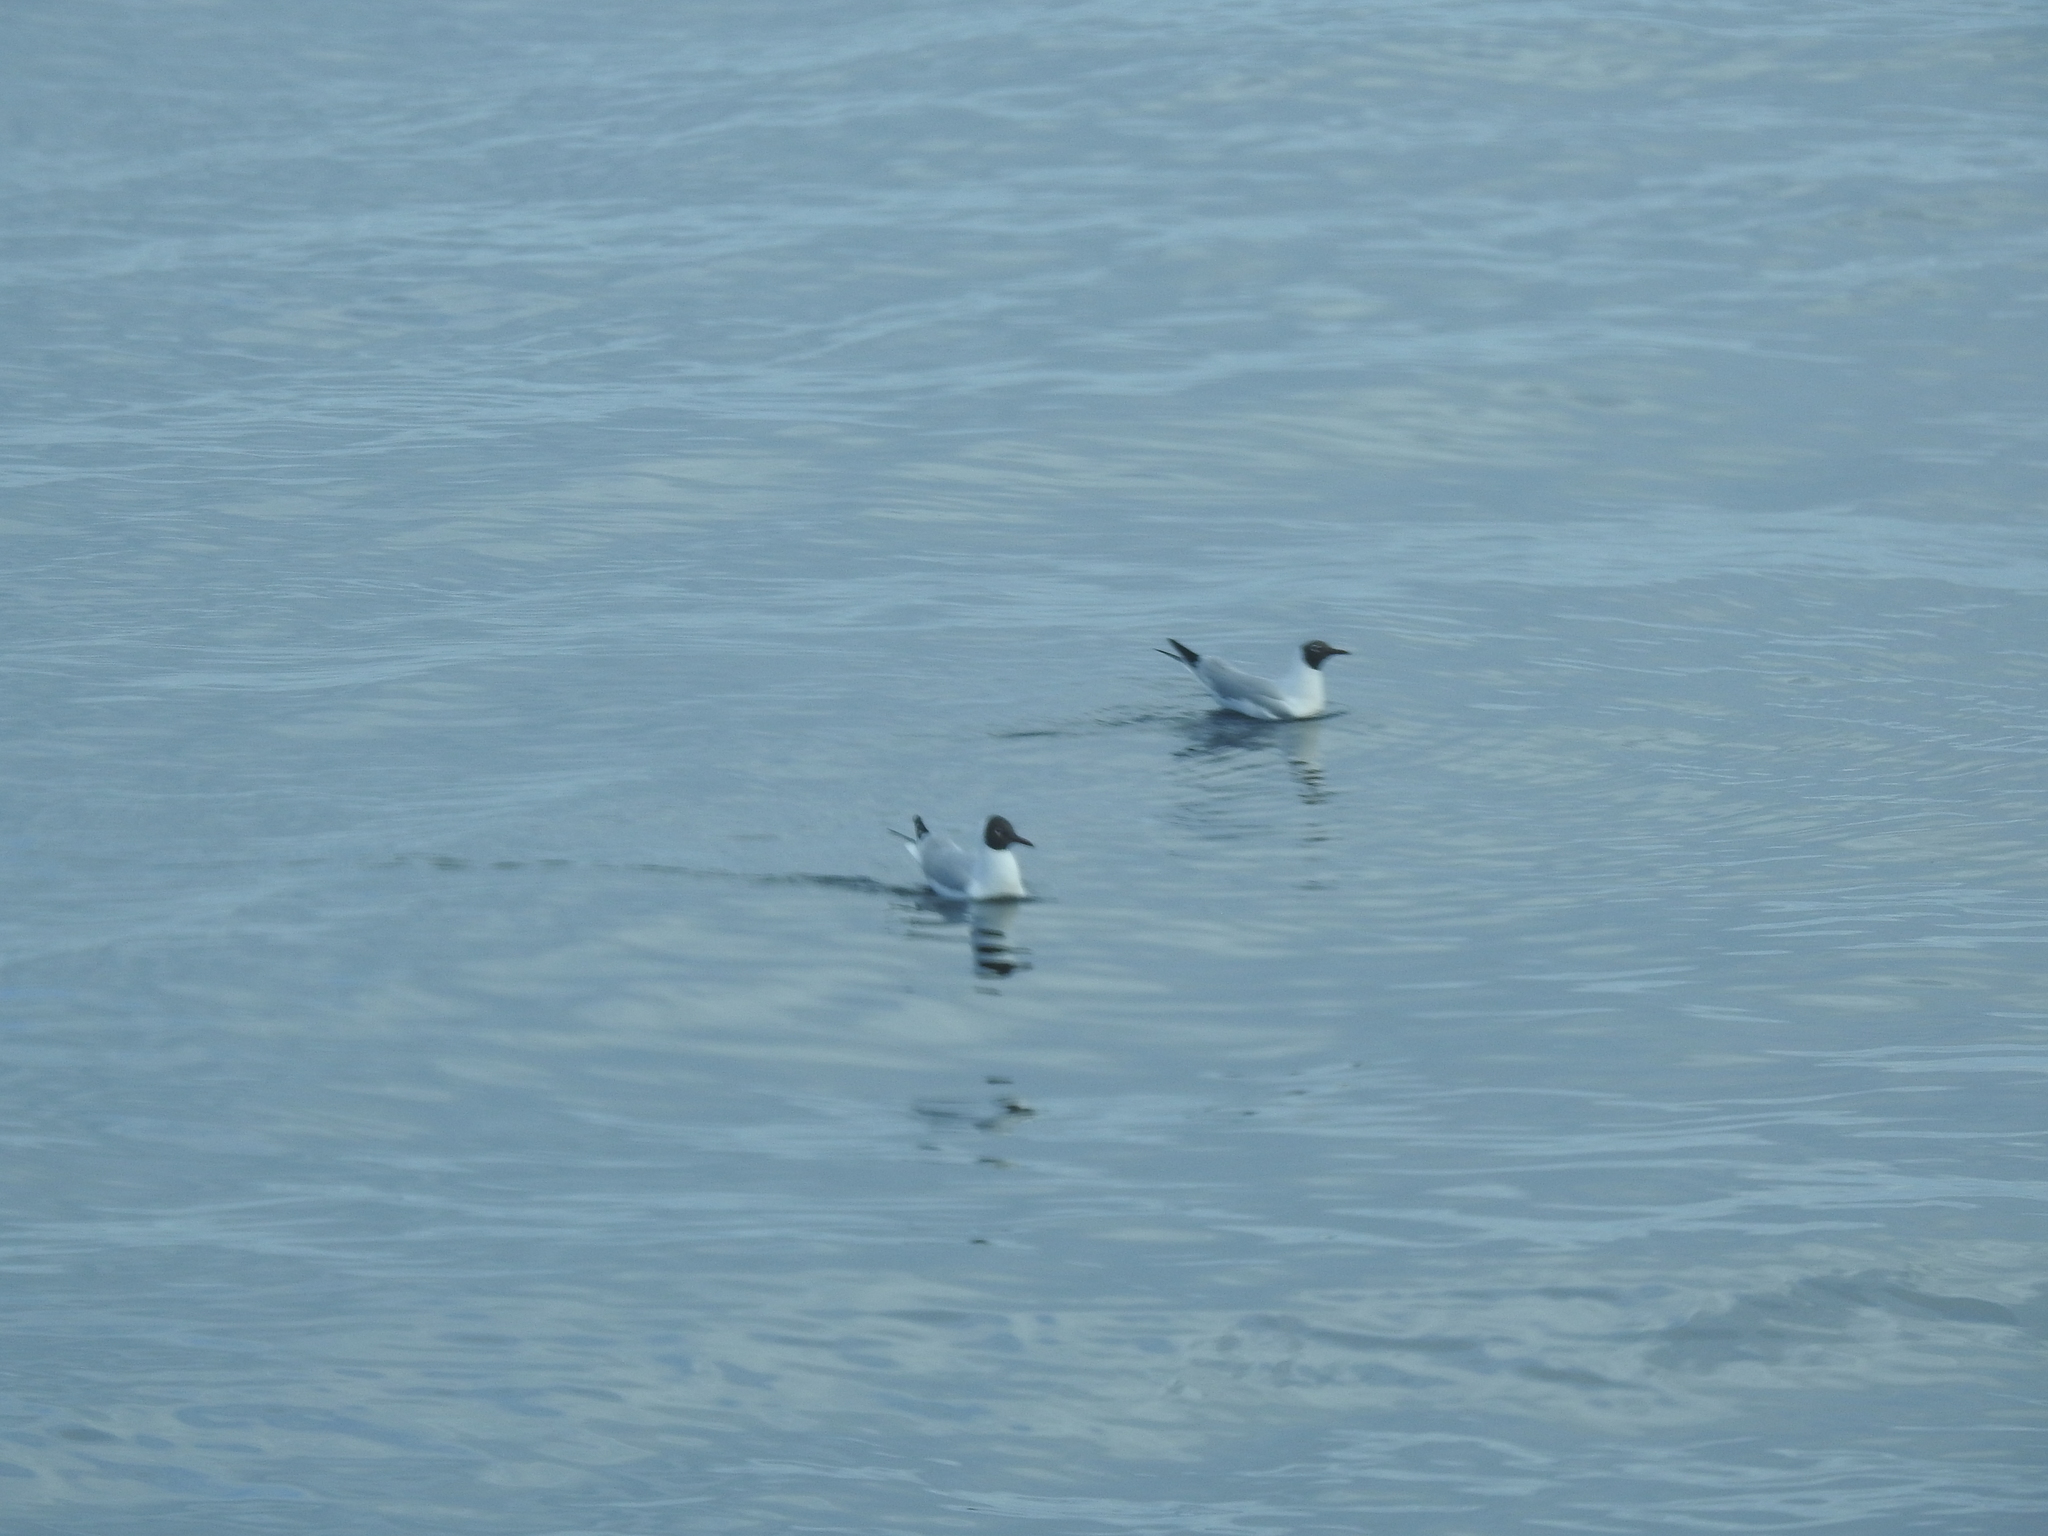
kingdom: Animalia
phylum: Chordata
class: Aves
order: Charadriiformes
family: Laridae
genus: Chroicocephalus
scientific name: Chroicocephalus ridibundus
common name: Black-headed gull
